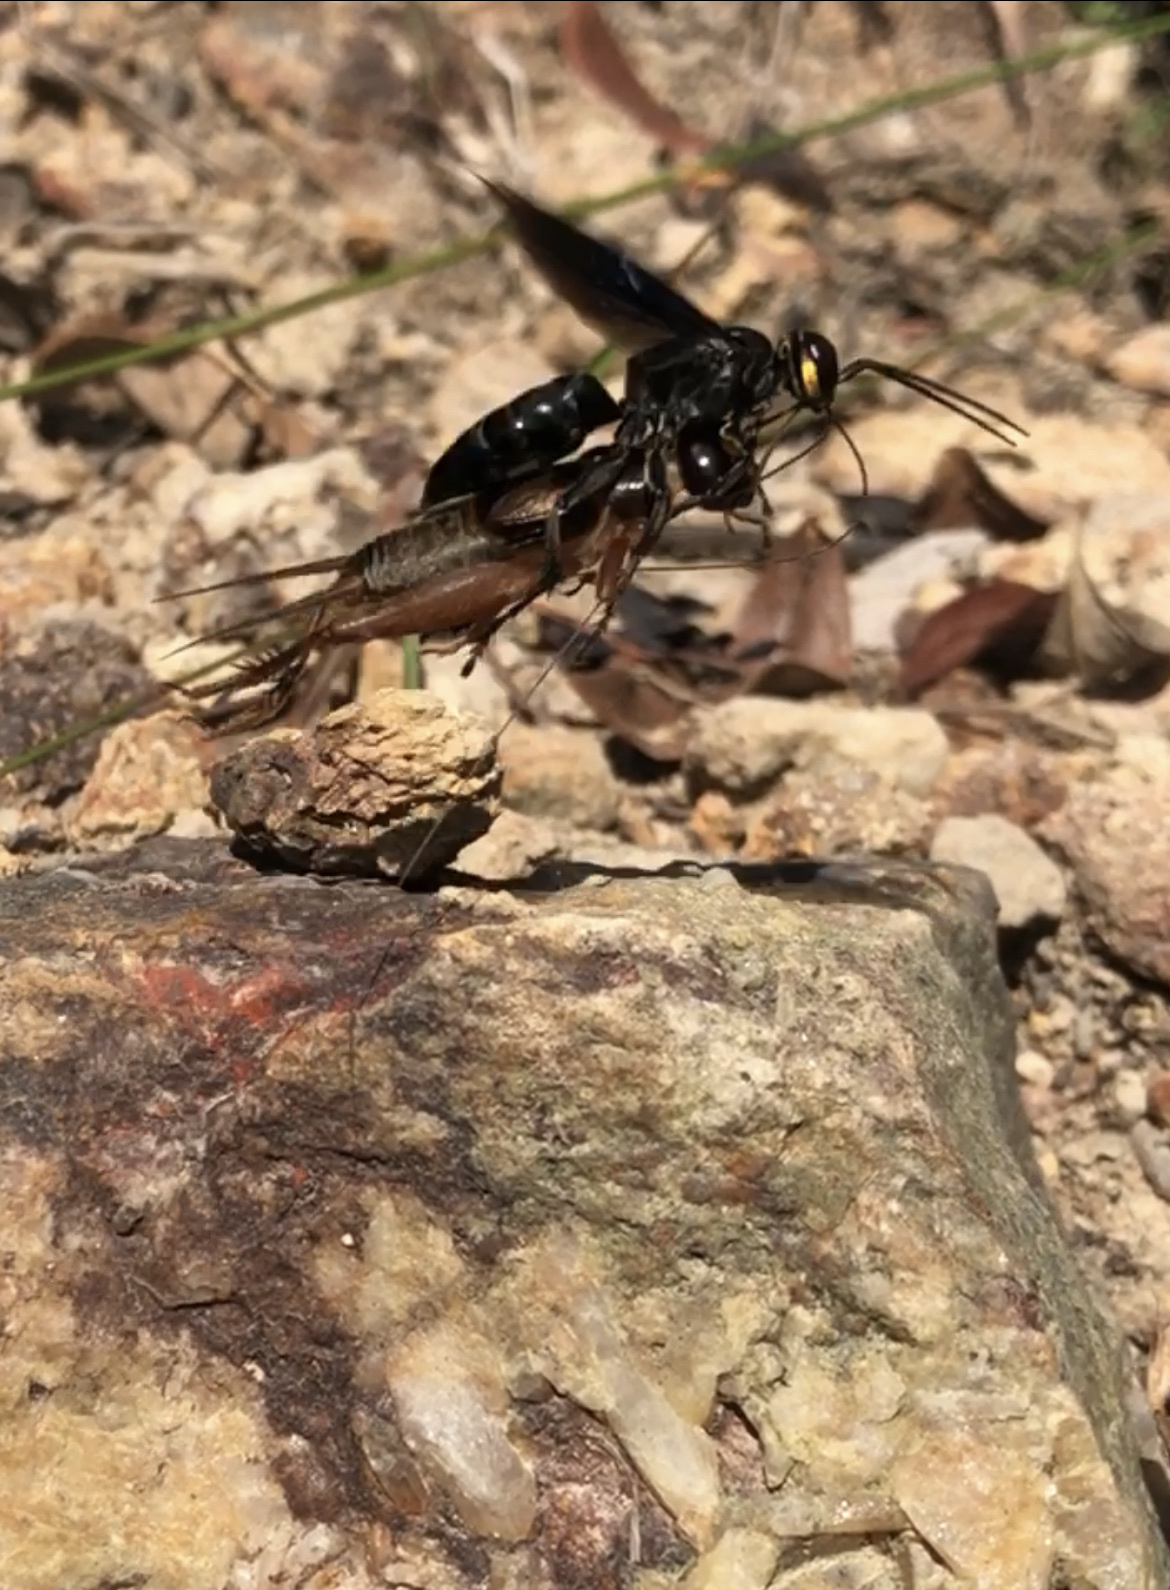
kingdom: Animalia
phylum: Arthropoda
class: Insecta
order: Hymenoptera
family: Crabronidae
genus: Liris
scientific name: Liris anthracinus
